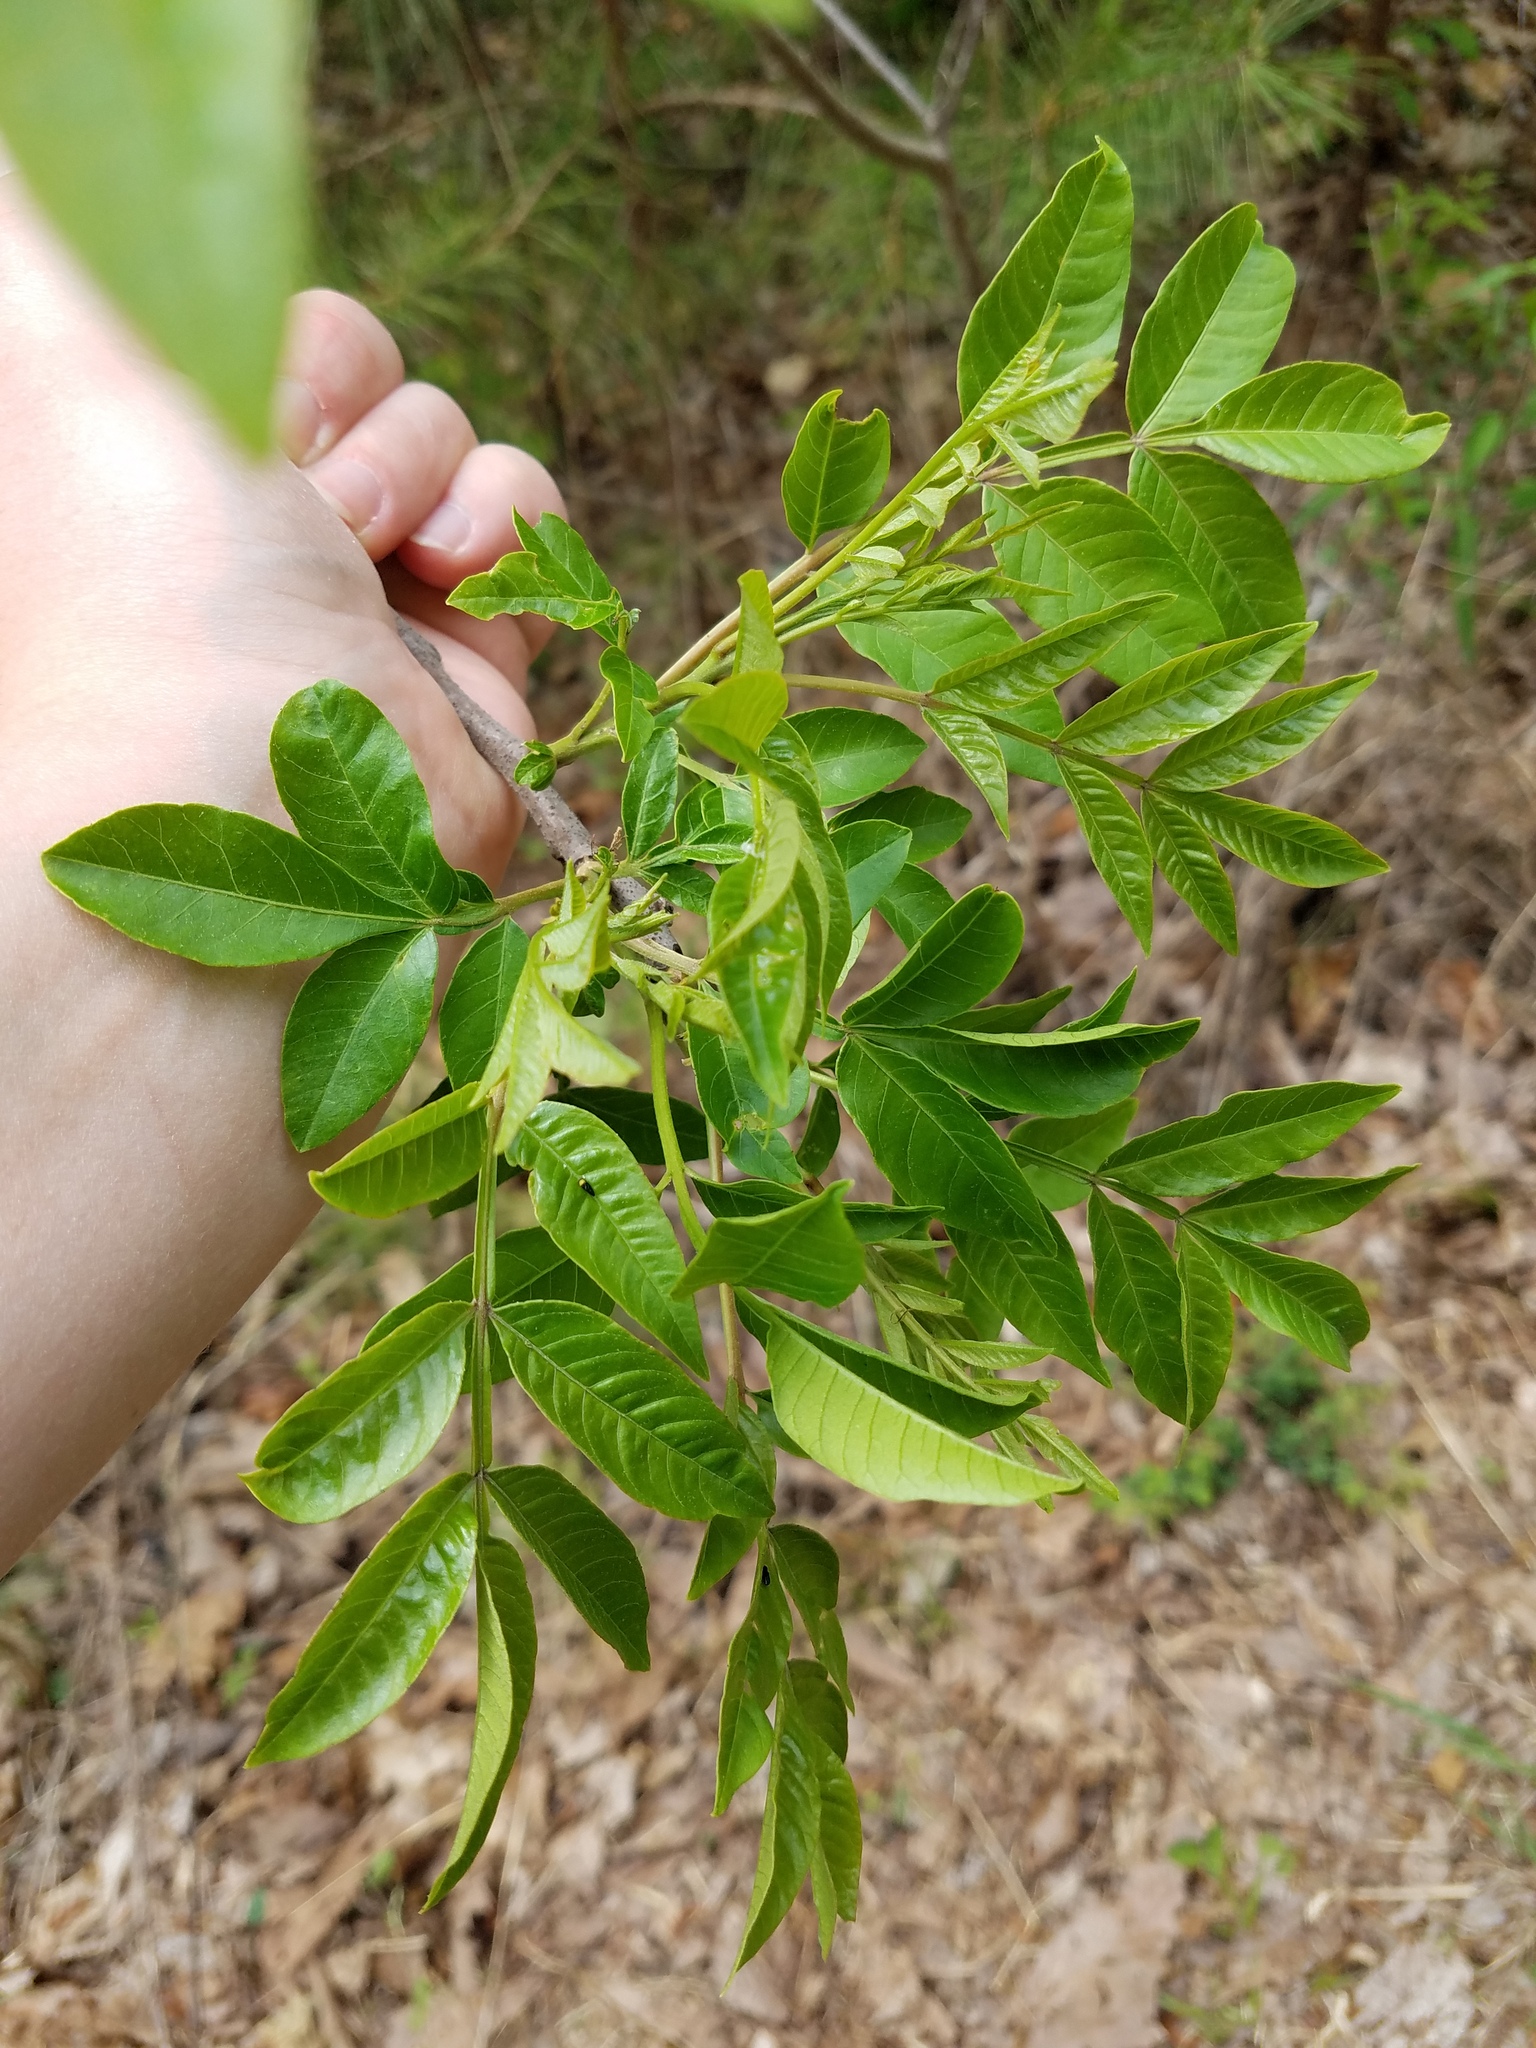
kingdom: Plantae
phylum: Tracheophyta
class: Magnoliopsida
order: Sapindales
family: Anacardiaceae
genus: Rhus
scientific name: Rhus copallina
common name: Shining sumac
